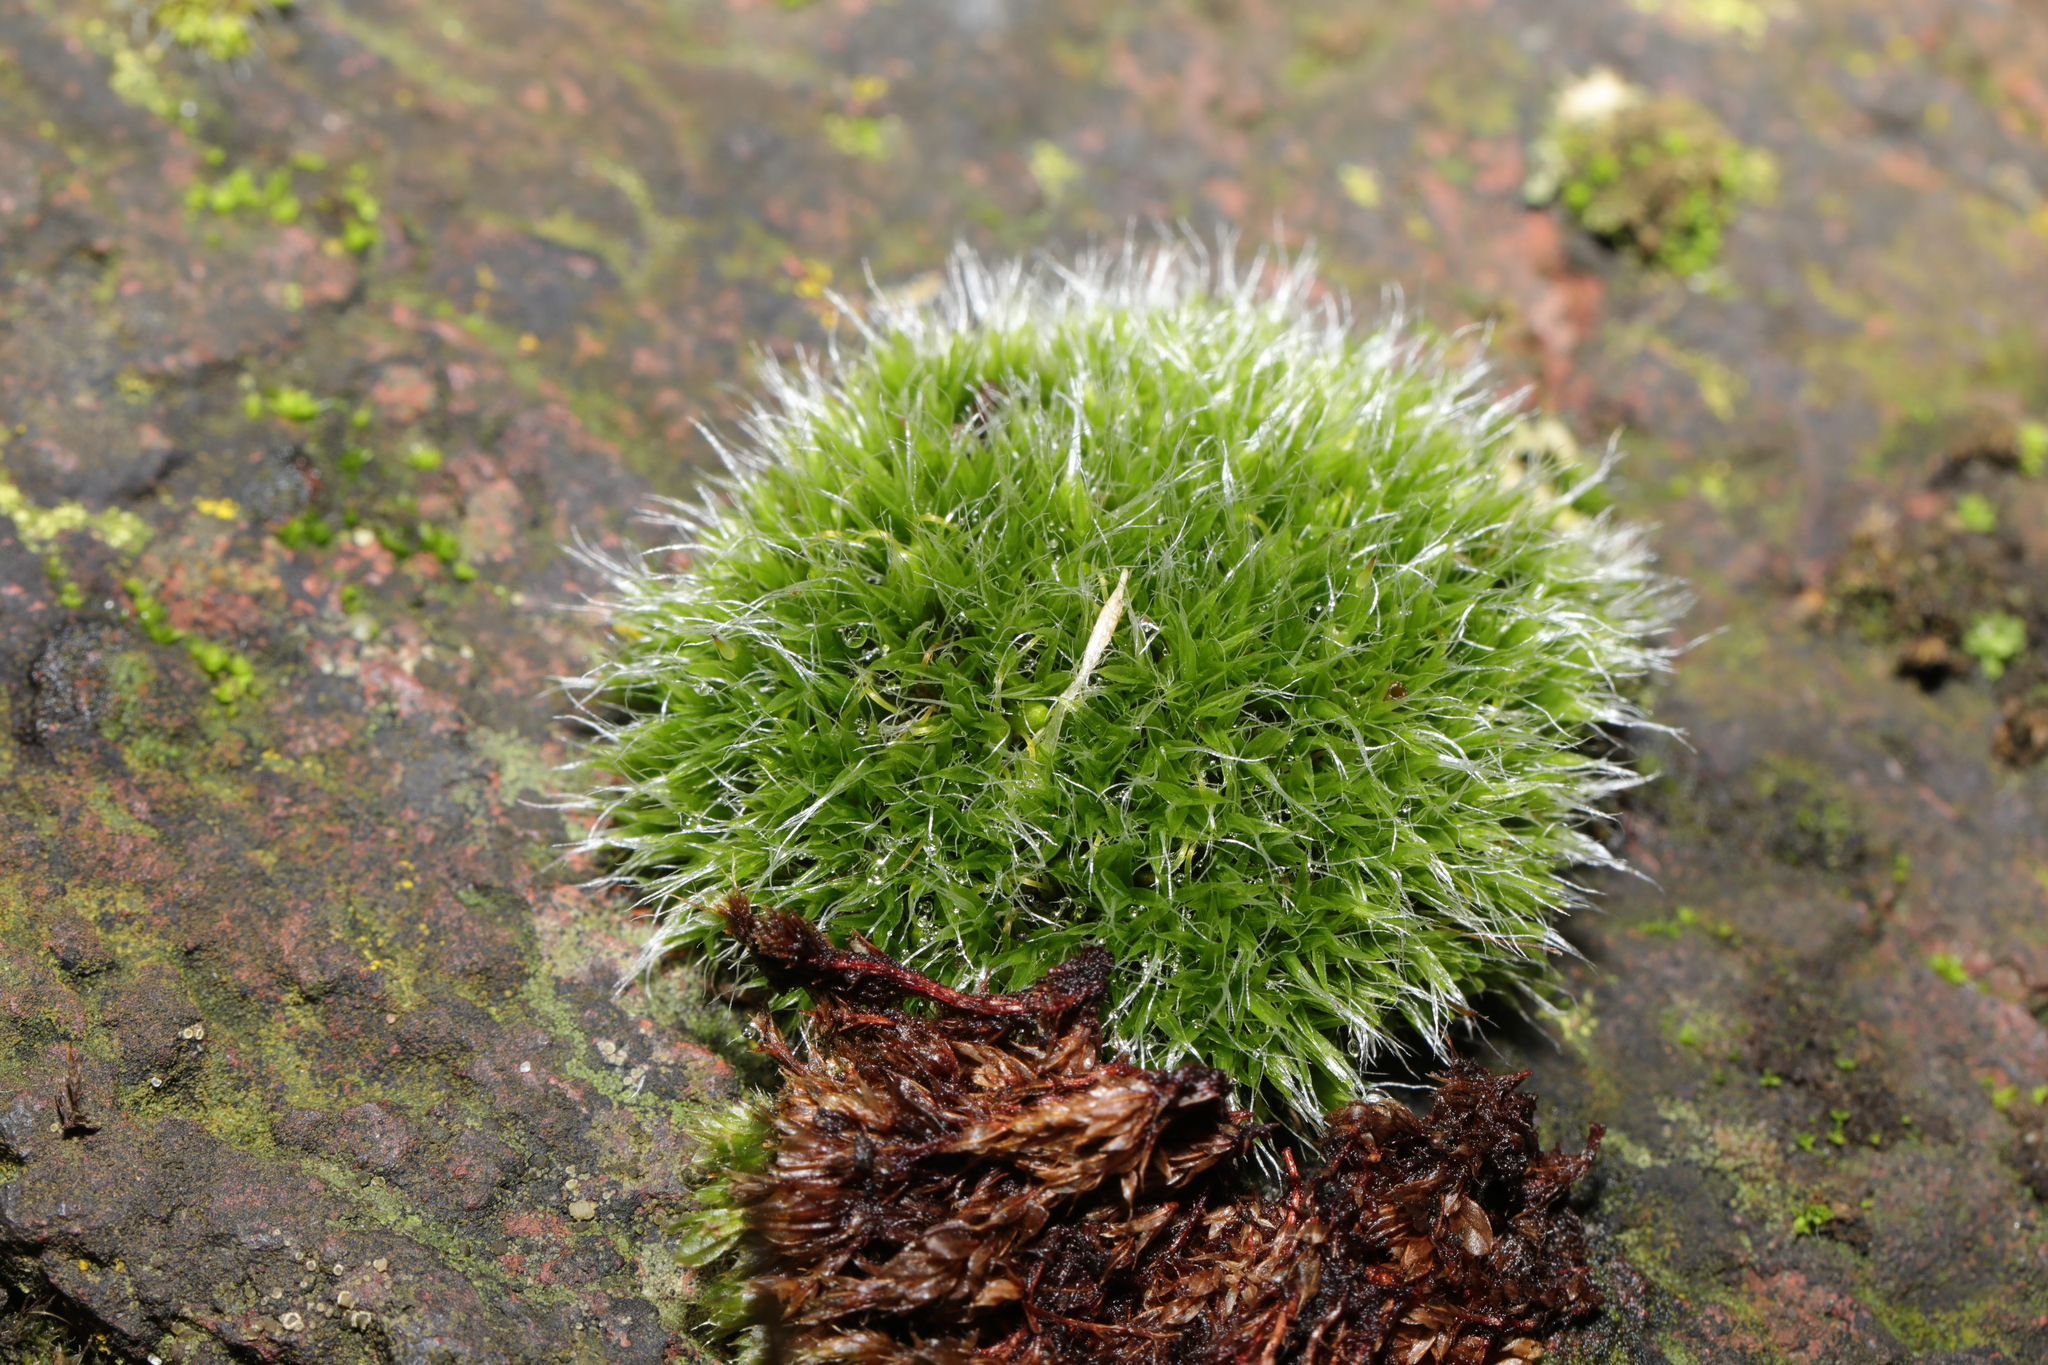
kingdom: Plantae
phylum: Bryophyta
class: Bryopsida
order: Grimmiales
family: Grimmiaceae
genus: Grimmia
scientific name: Grimmia pulvinata
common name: Grey-cushioned grimmia
